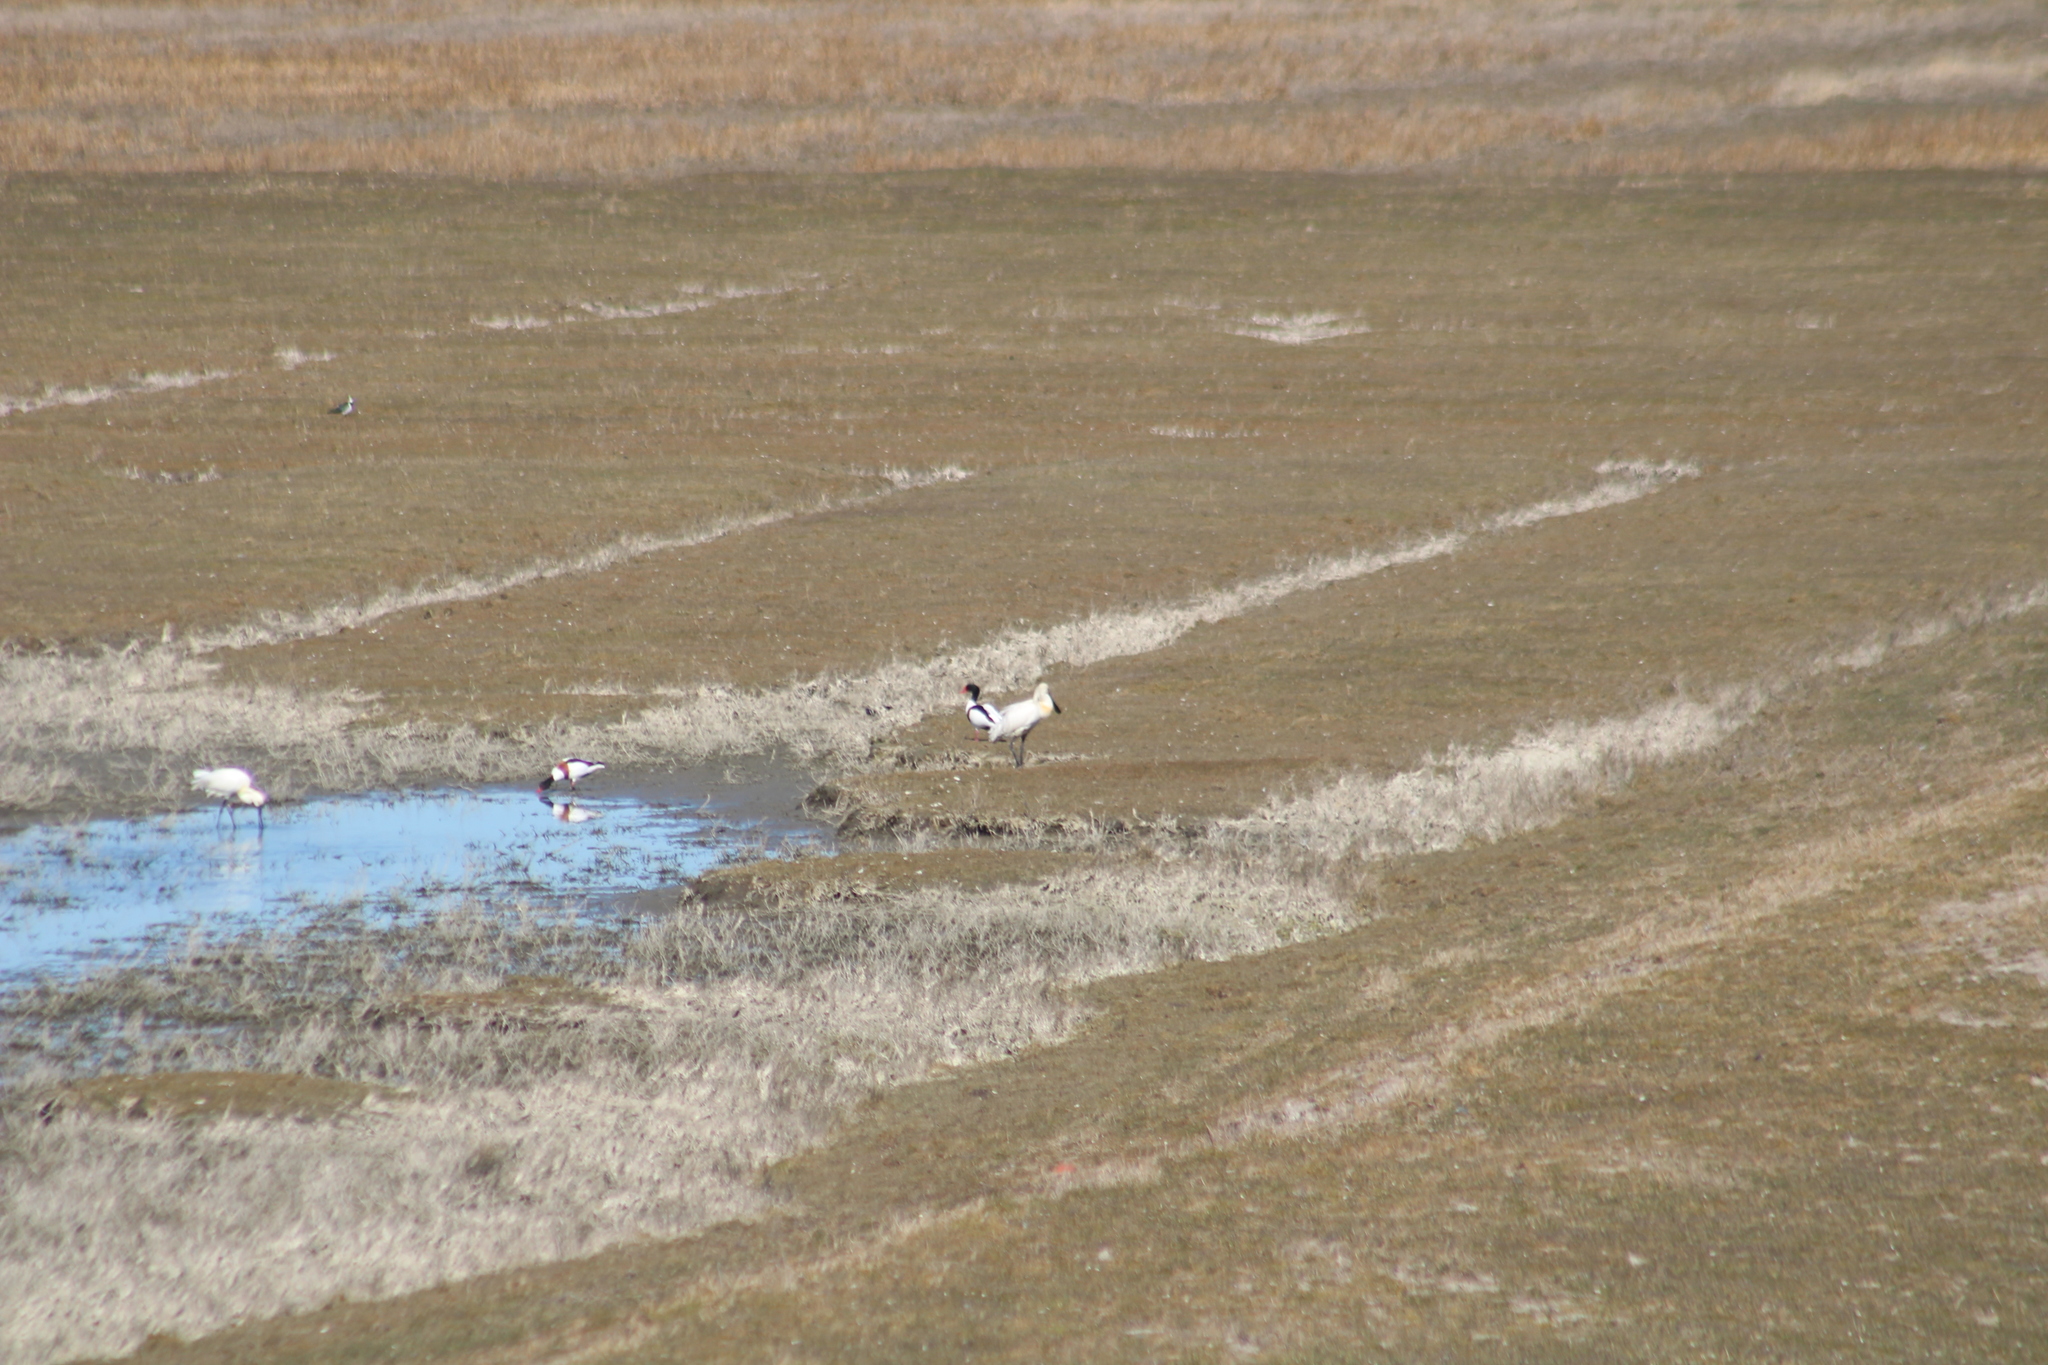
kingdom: Animalia
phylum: Chordata
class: Aves
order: Anseriformes
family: Anatidae
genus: Tadorna
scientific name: Tadorna tadorna
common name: Common shelduck
